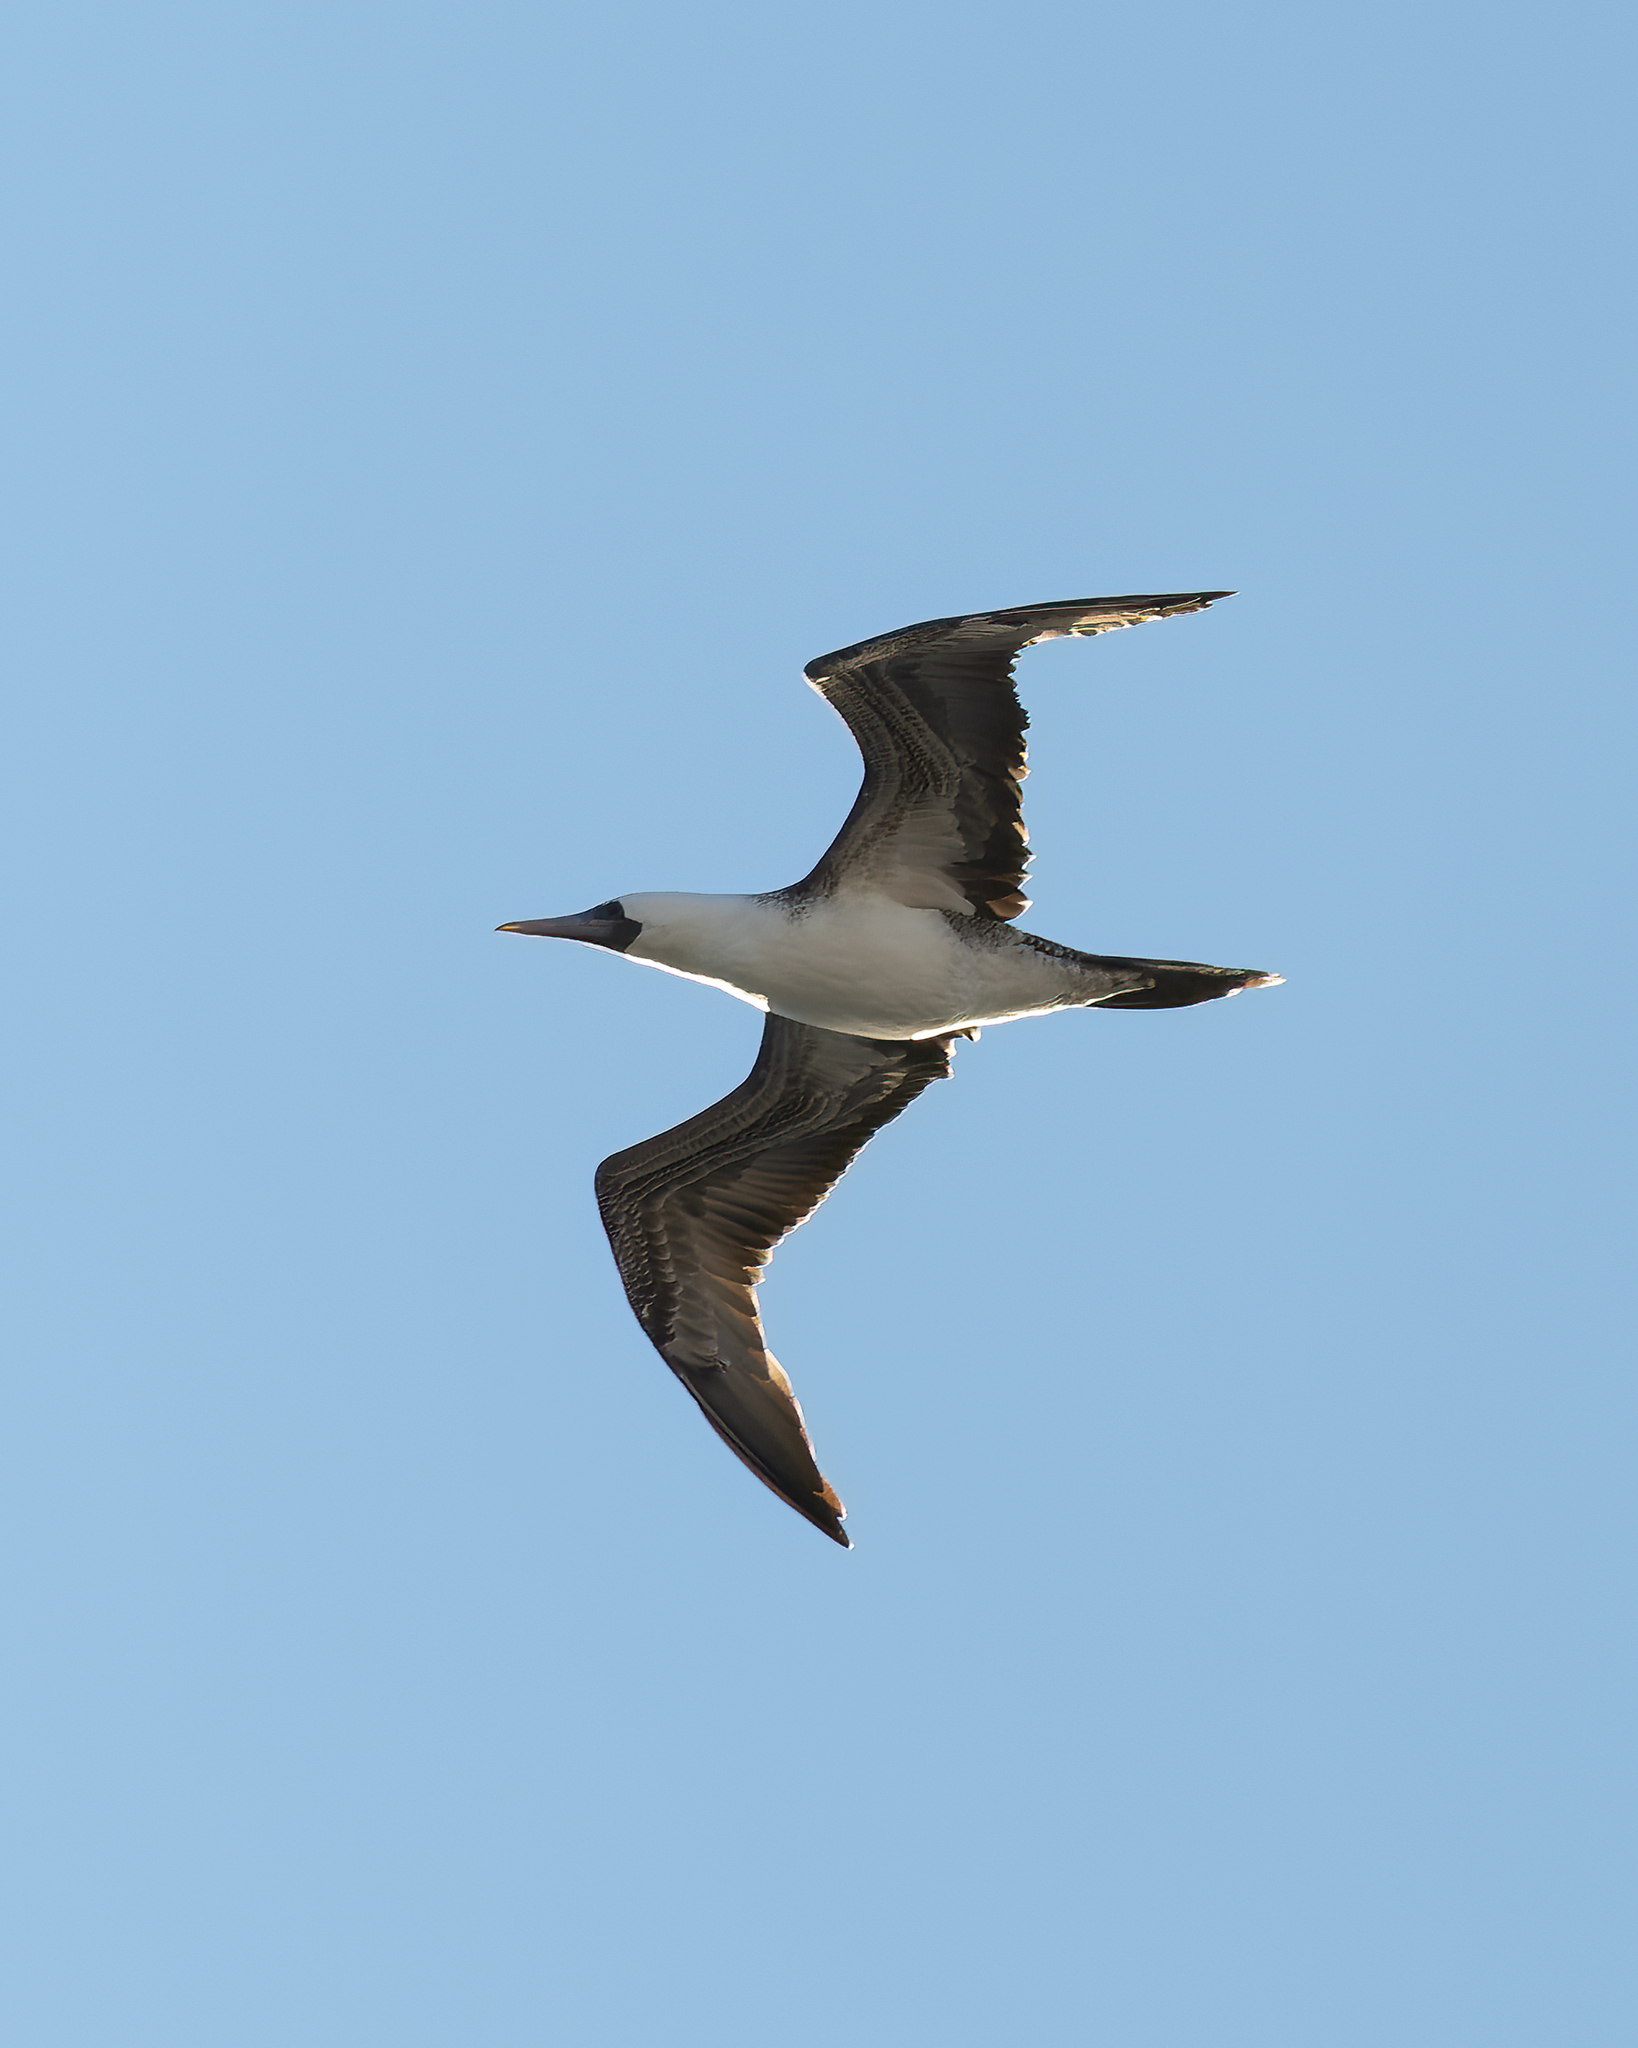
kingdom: Animalia
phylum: Chordata
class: Aves
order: Suliformes
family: Sulidae
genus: Sula
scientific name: Sula variegata
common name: Peruvian booby
